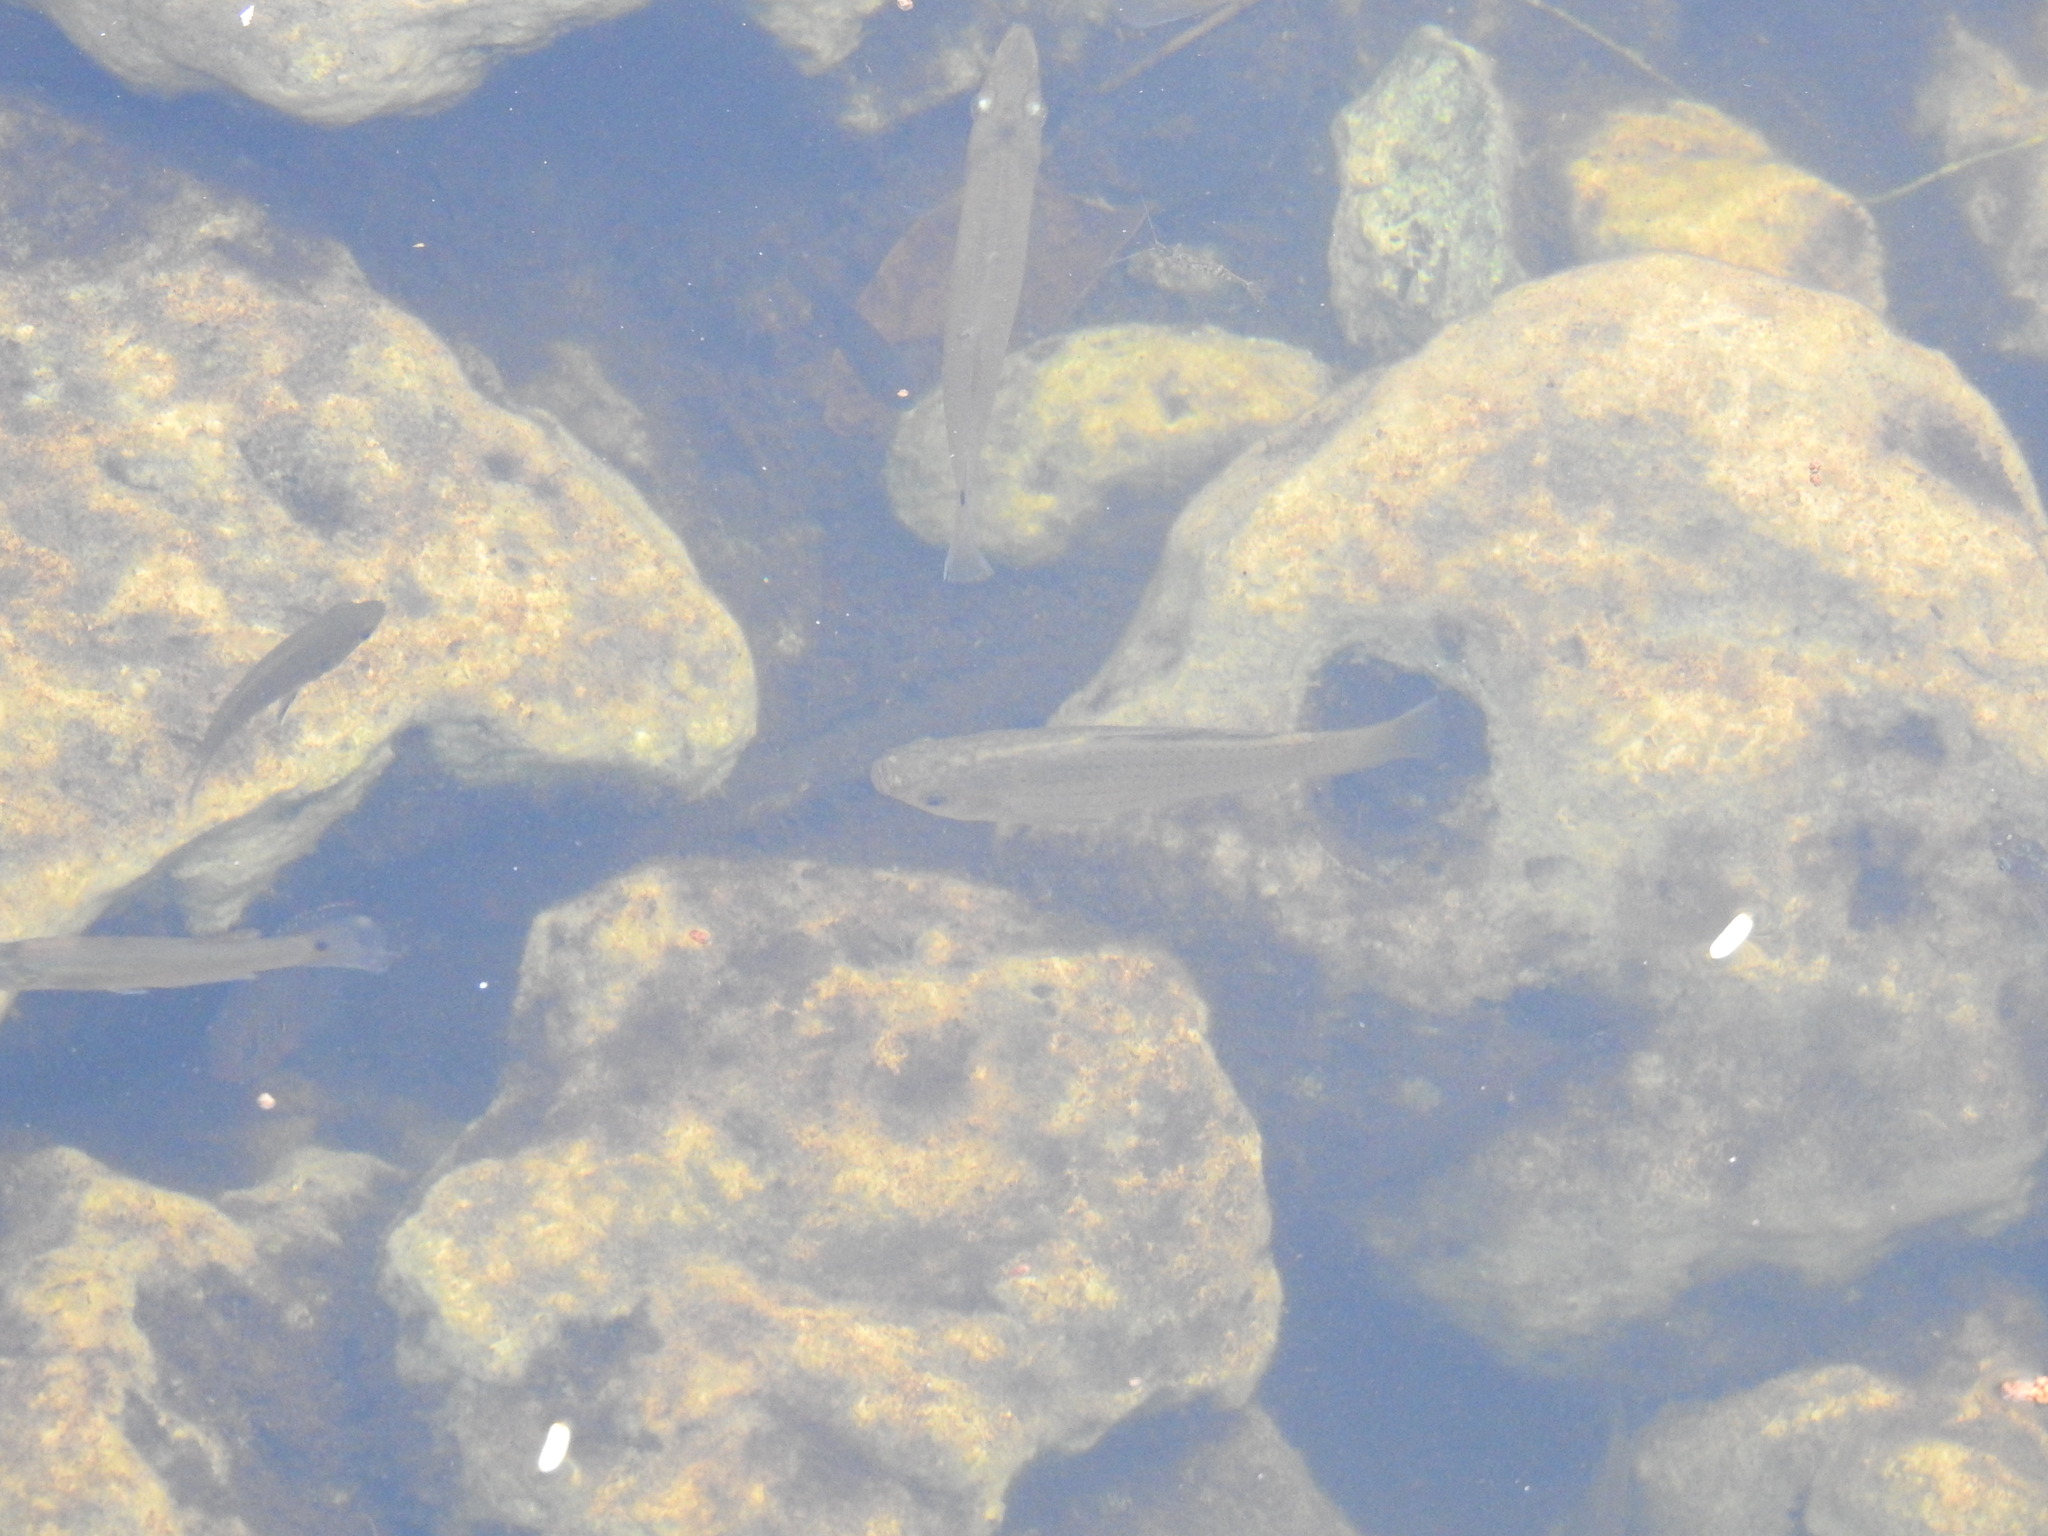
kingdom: Animalia
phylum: Chordata
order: Cyprinodontiformes
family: Poeciliidae
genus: Belonesox
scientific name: Belonesox belizanus
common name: Pike killifish
